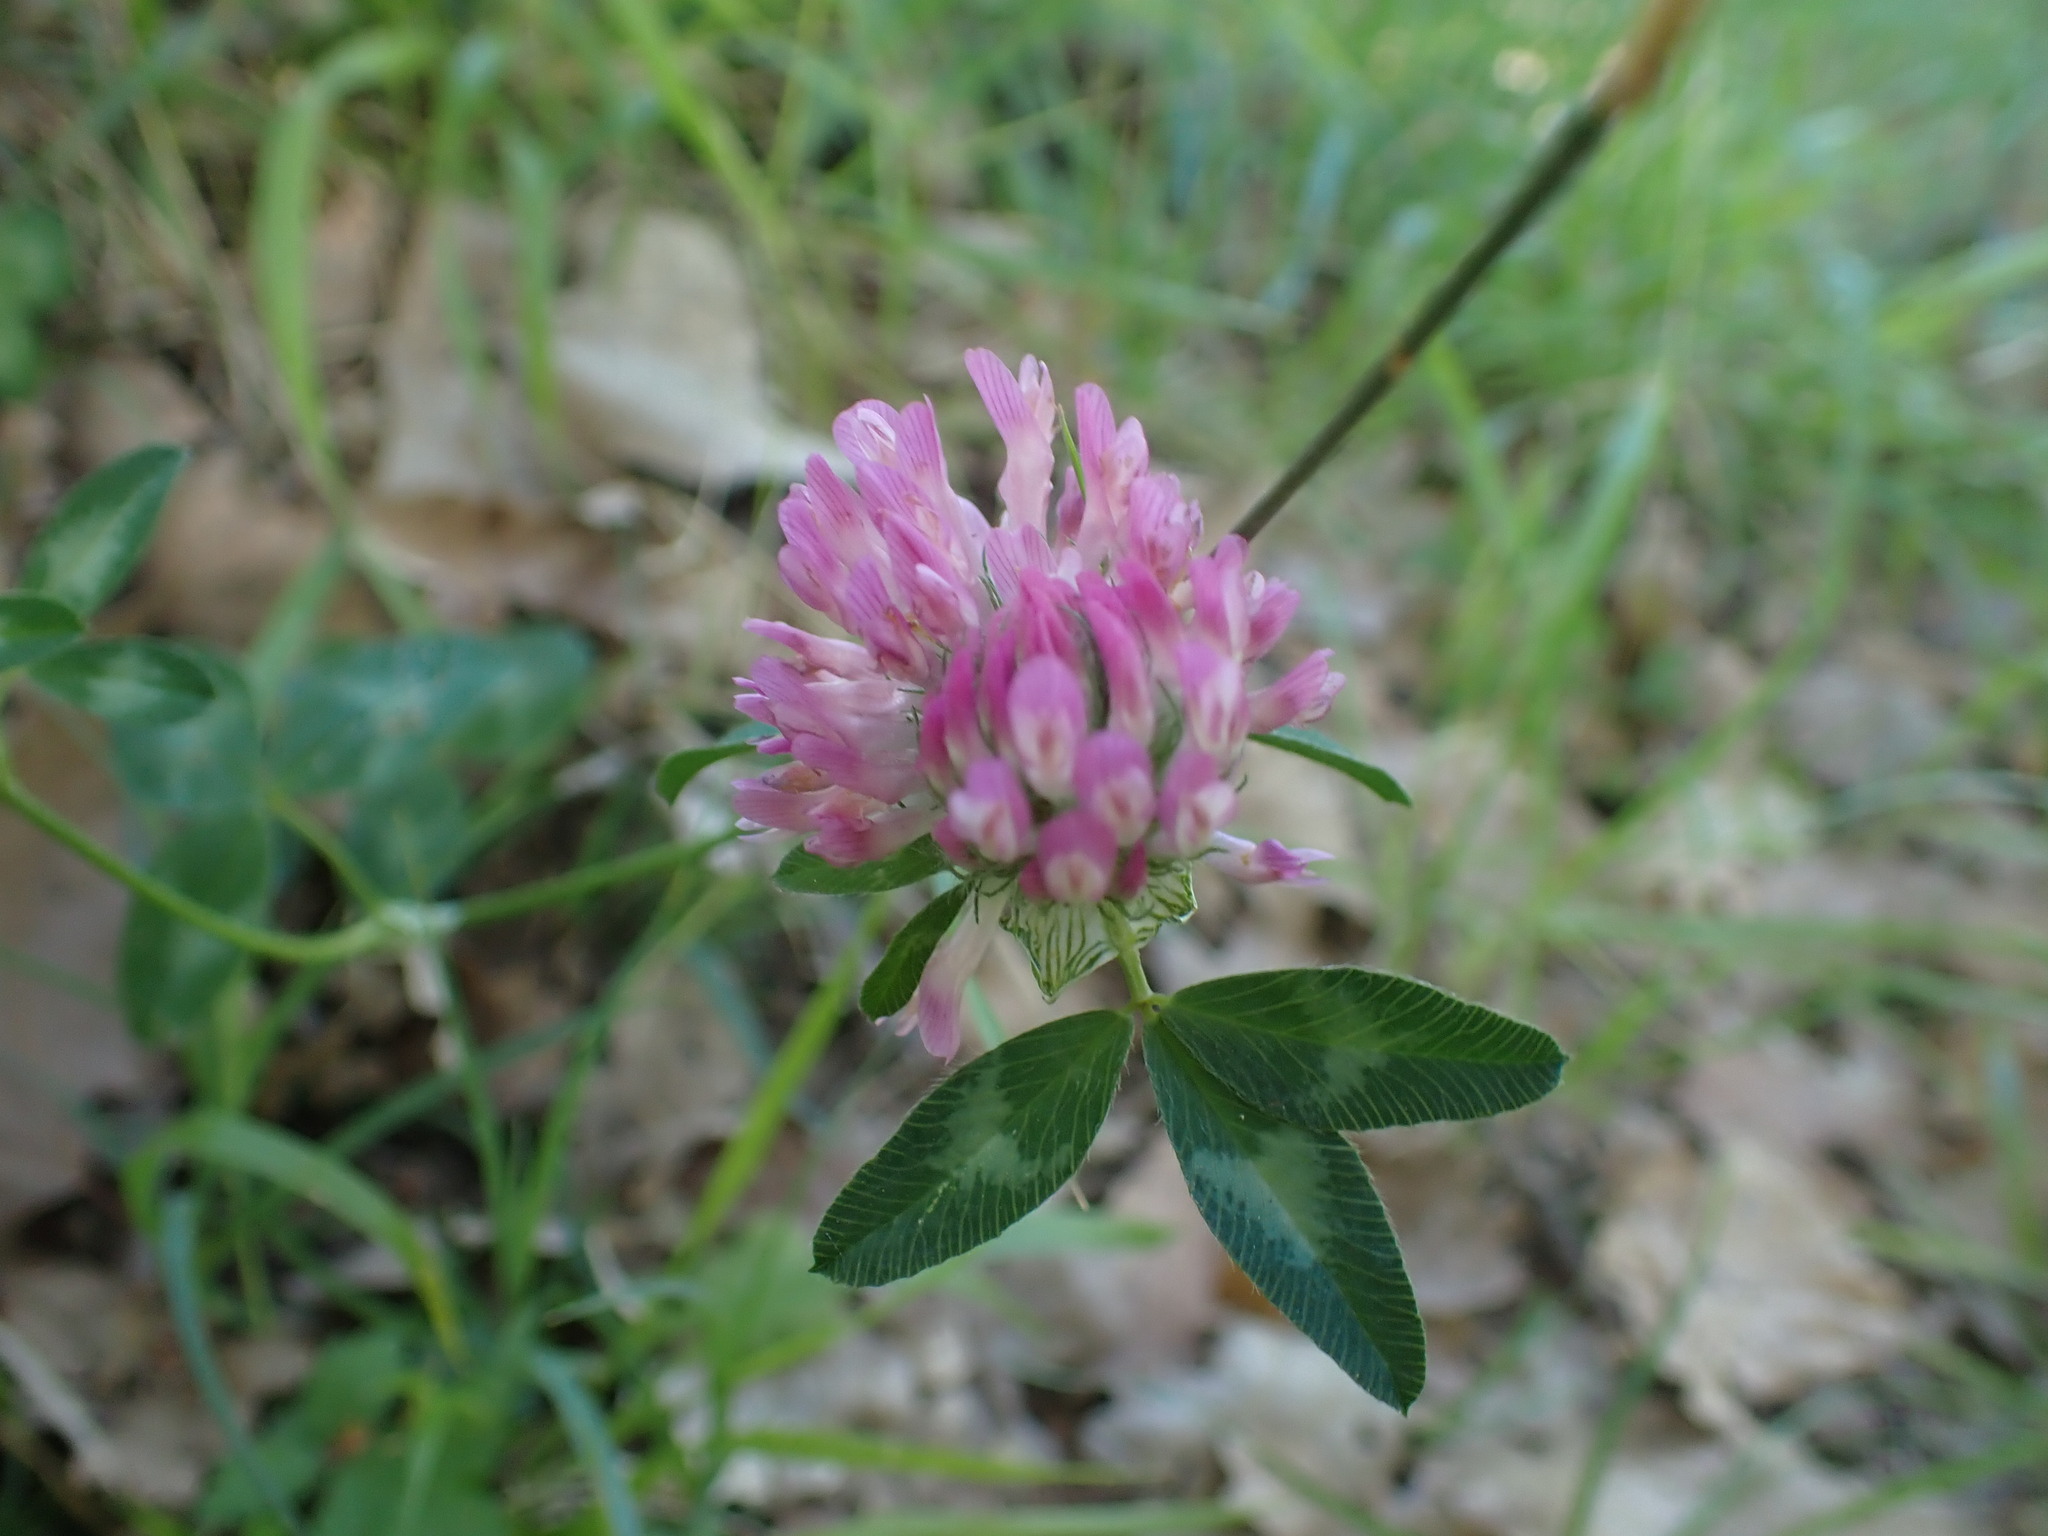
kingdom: Plantae
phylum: Tracheophyta
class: Magnoliopsida
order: Fabales
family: Fabaceae
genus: Trifolium
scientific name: Trifolium pratense
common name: Red clover
